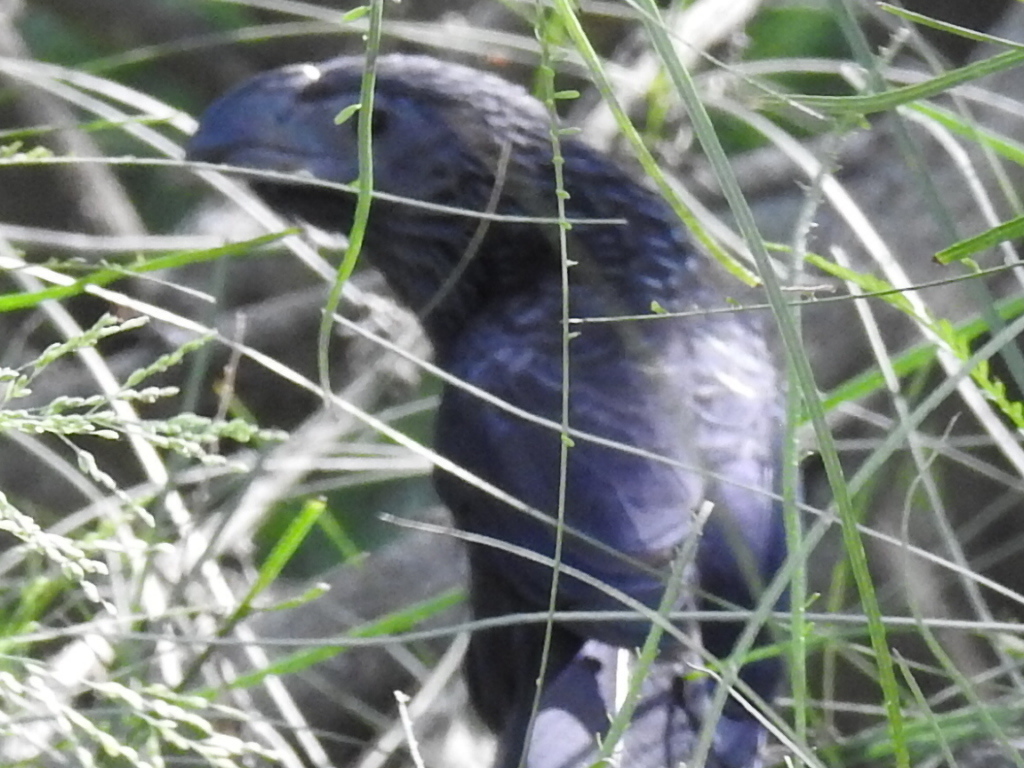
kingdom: Animalia
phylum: Chordata
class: Aves
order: Cuculiformes
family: Cuculidae
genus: Crotophaga
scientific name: Crotophaga sulcirostris
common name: Groove-billed ani
